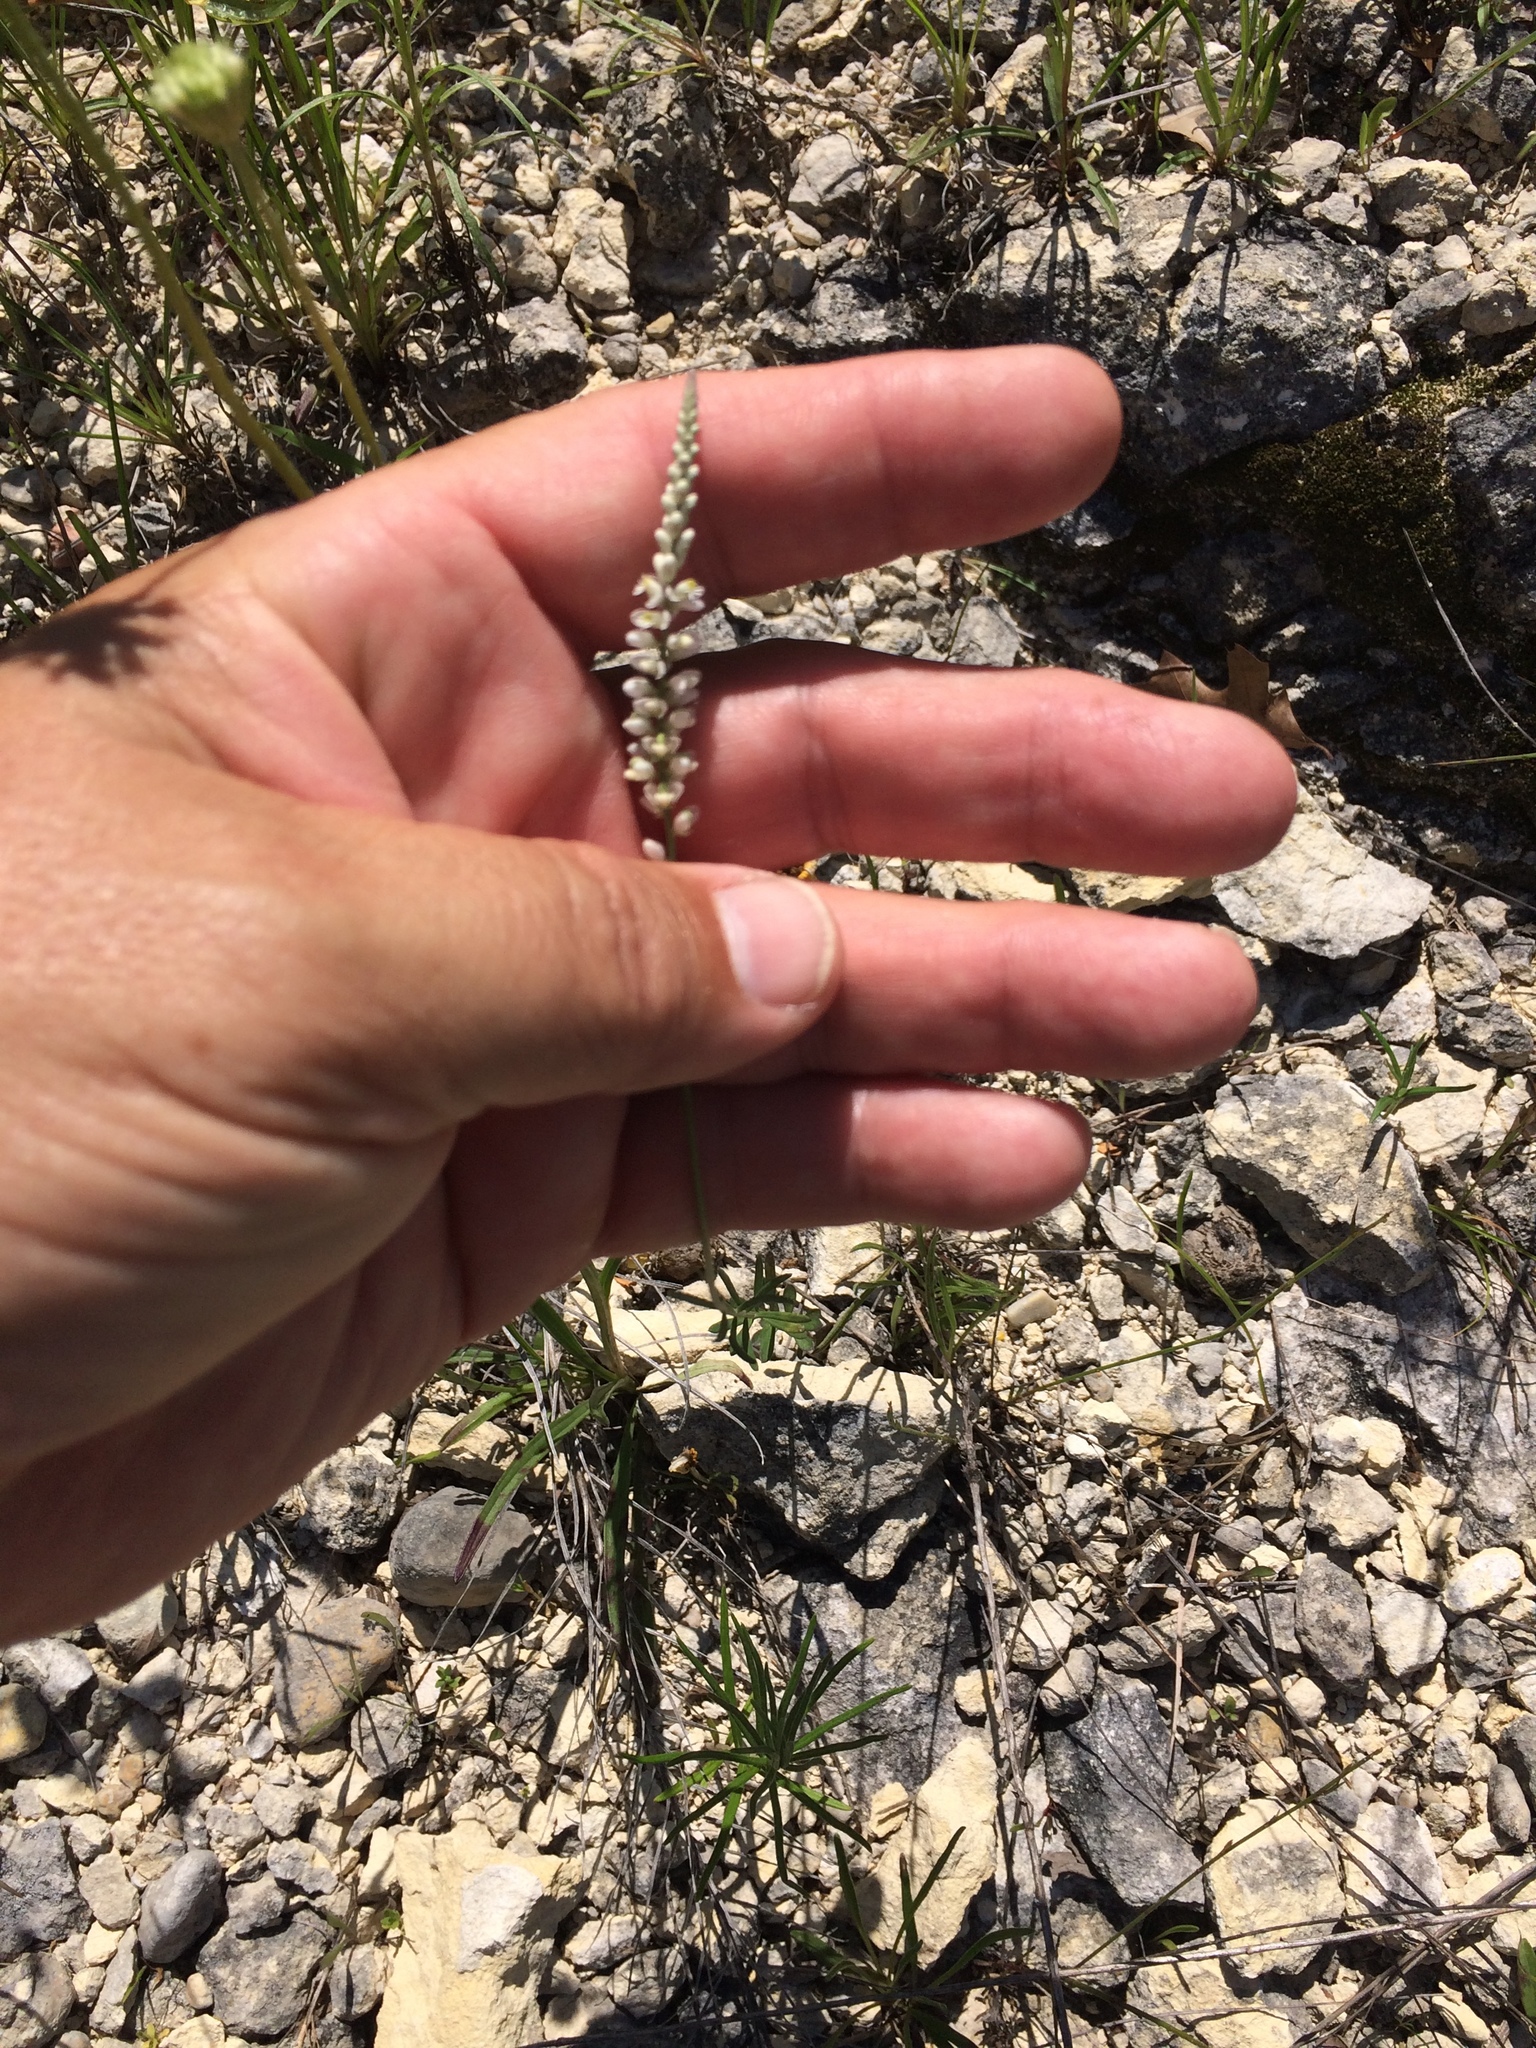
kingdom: Plantae
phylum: Tracheophyta
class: Magnoliopsida
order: Fabales
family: Polygalaceae
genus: Polygala
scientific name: Polygala alba
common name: White milkwort
